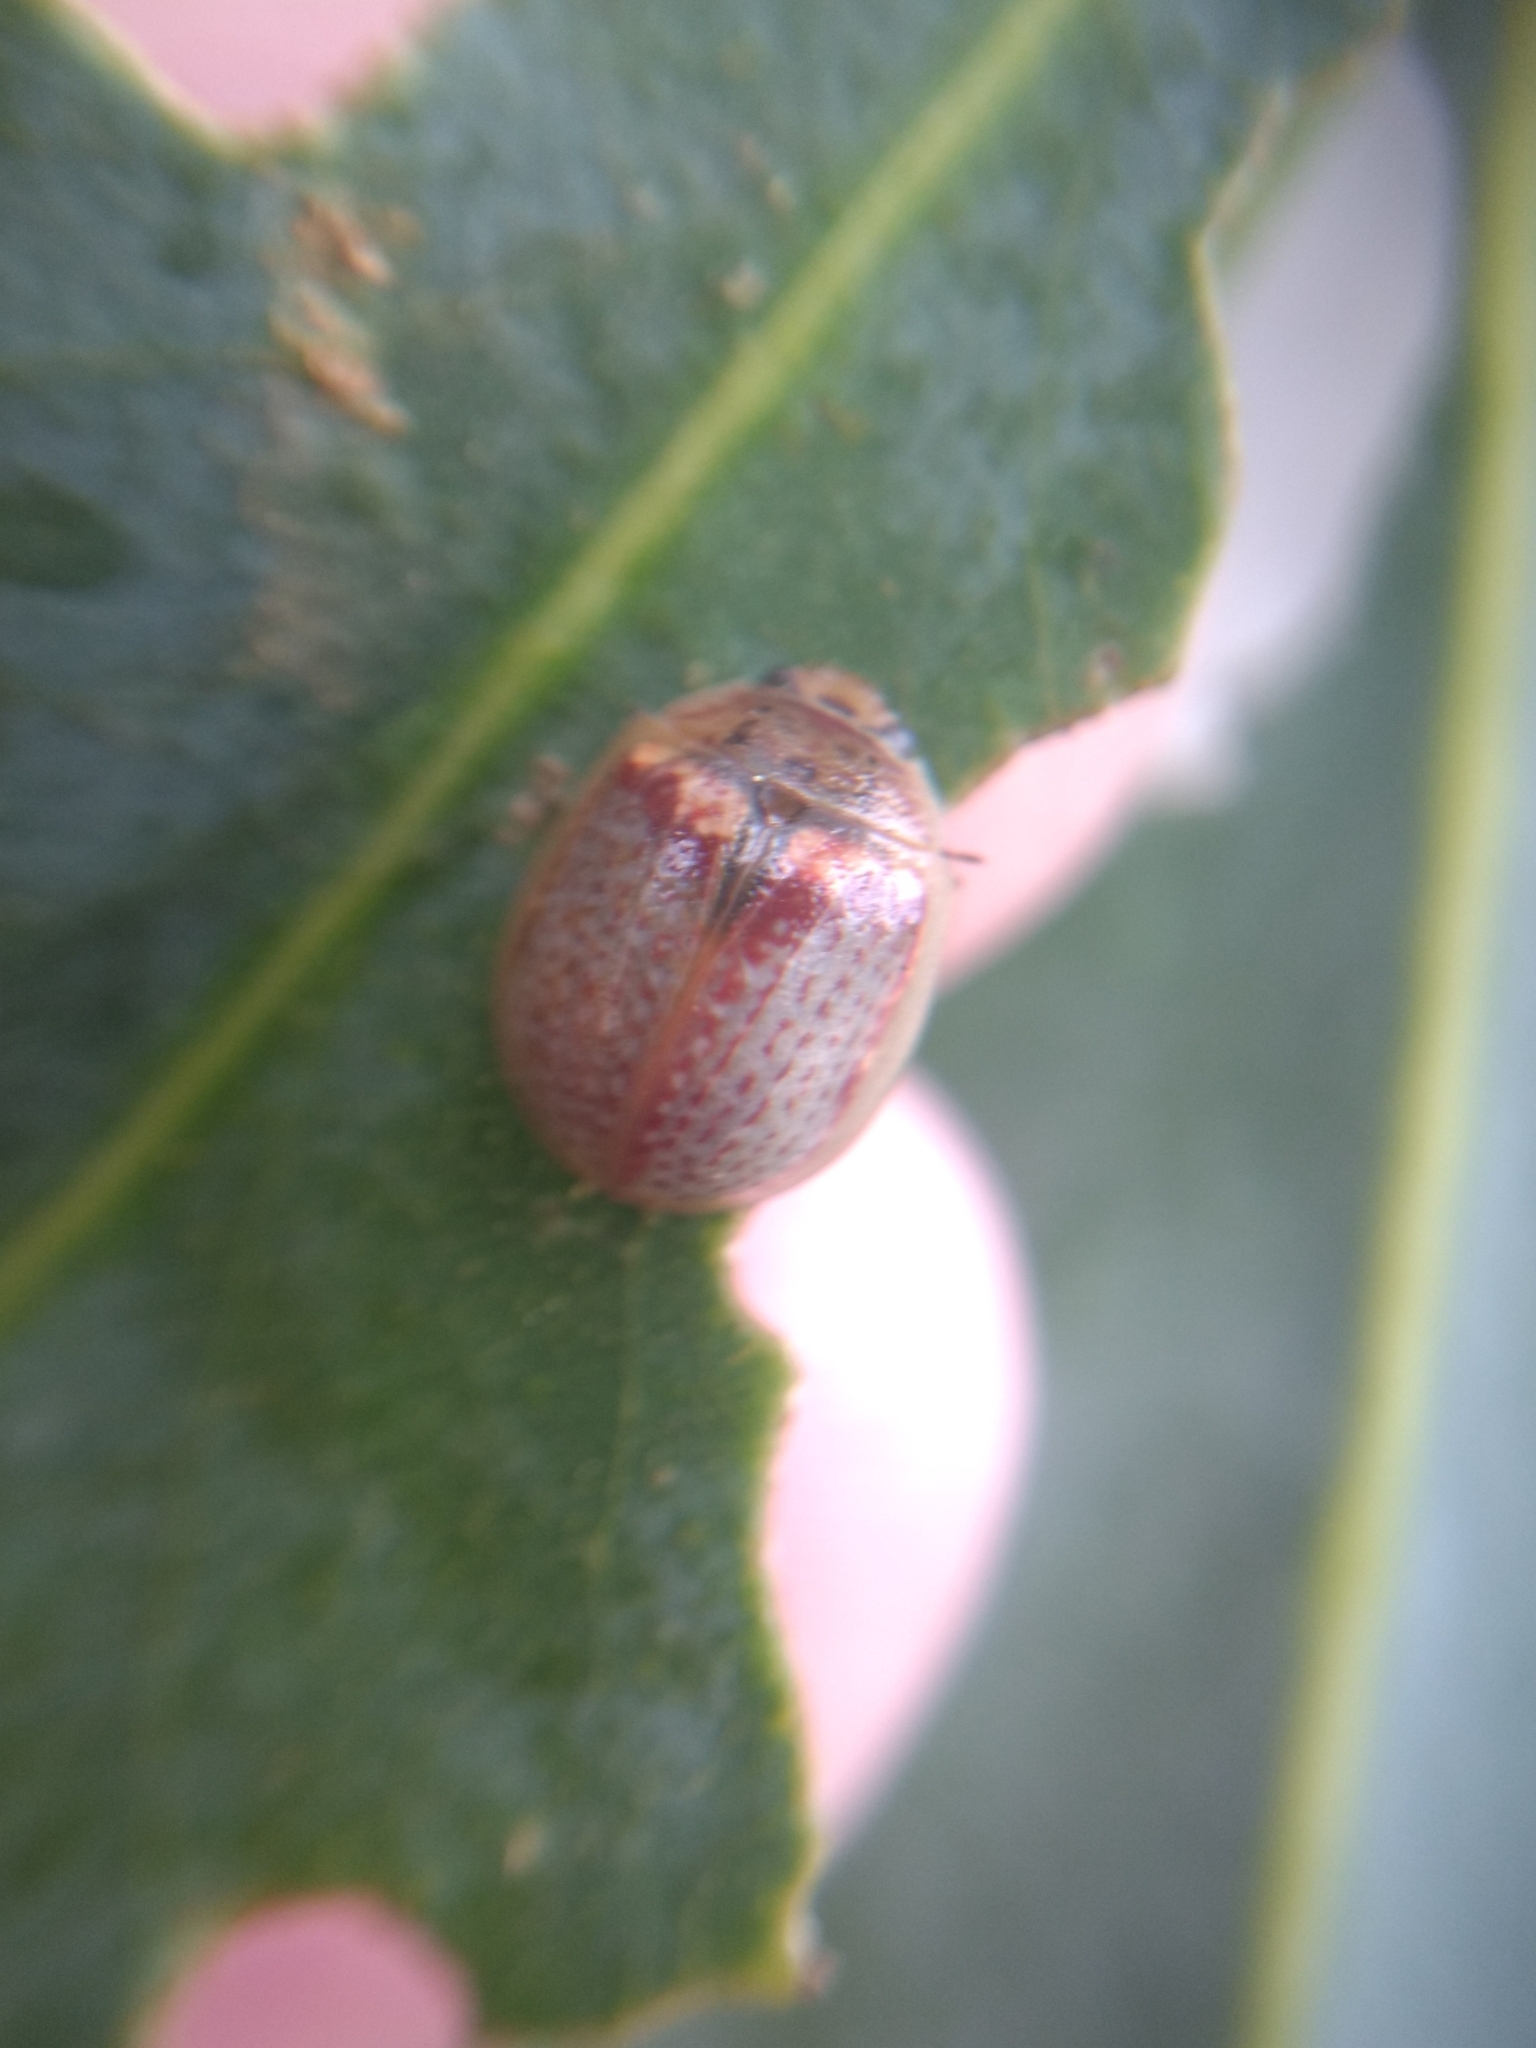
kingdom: Animalia
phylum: Arthropoda
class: Insecta
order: Coleoptera
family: Chrysomelidae
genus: Paropsisterna
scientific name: Paropsisterna m-fuscum
